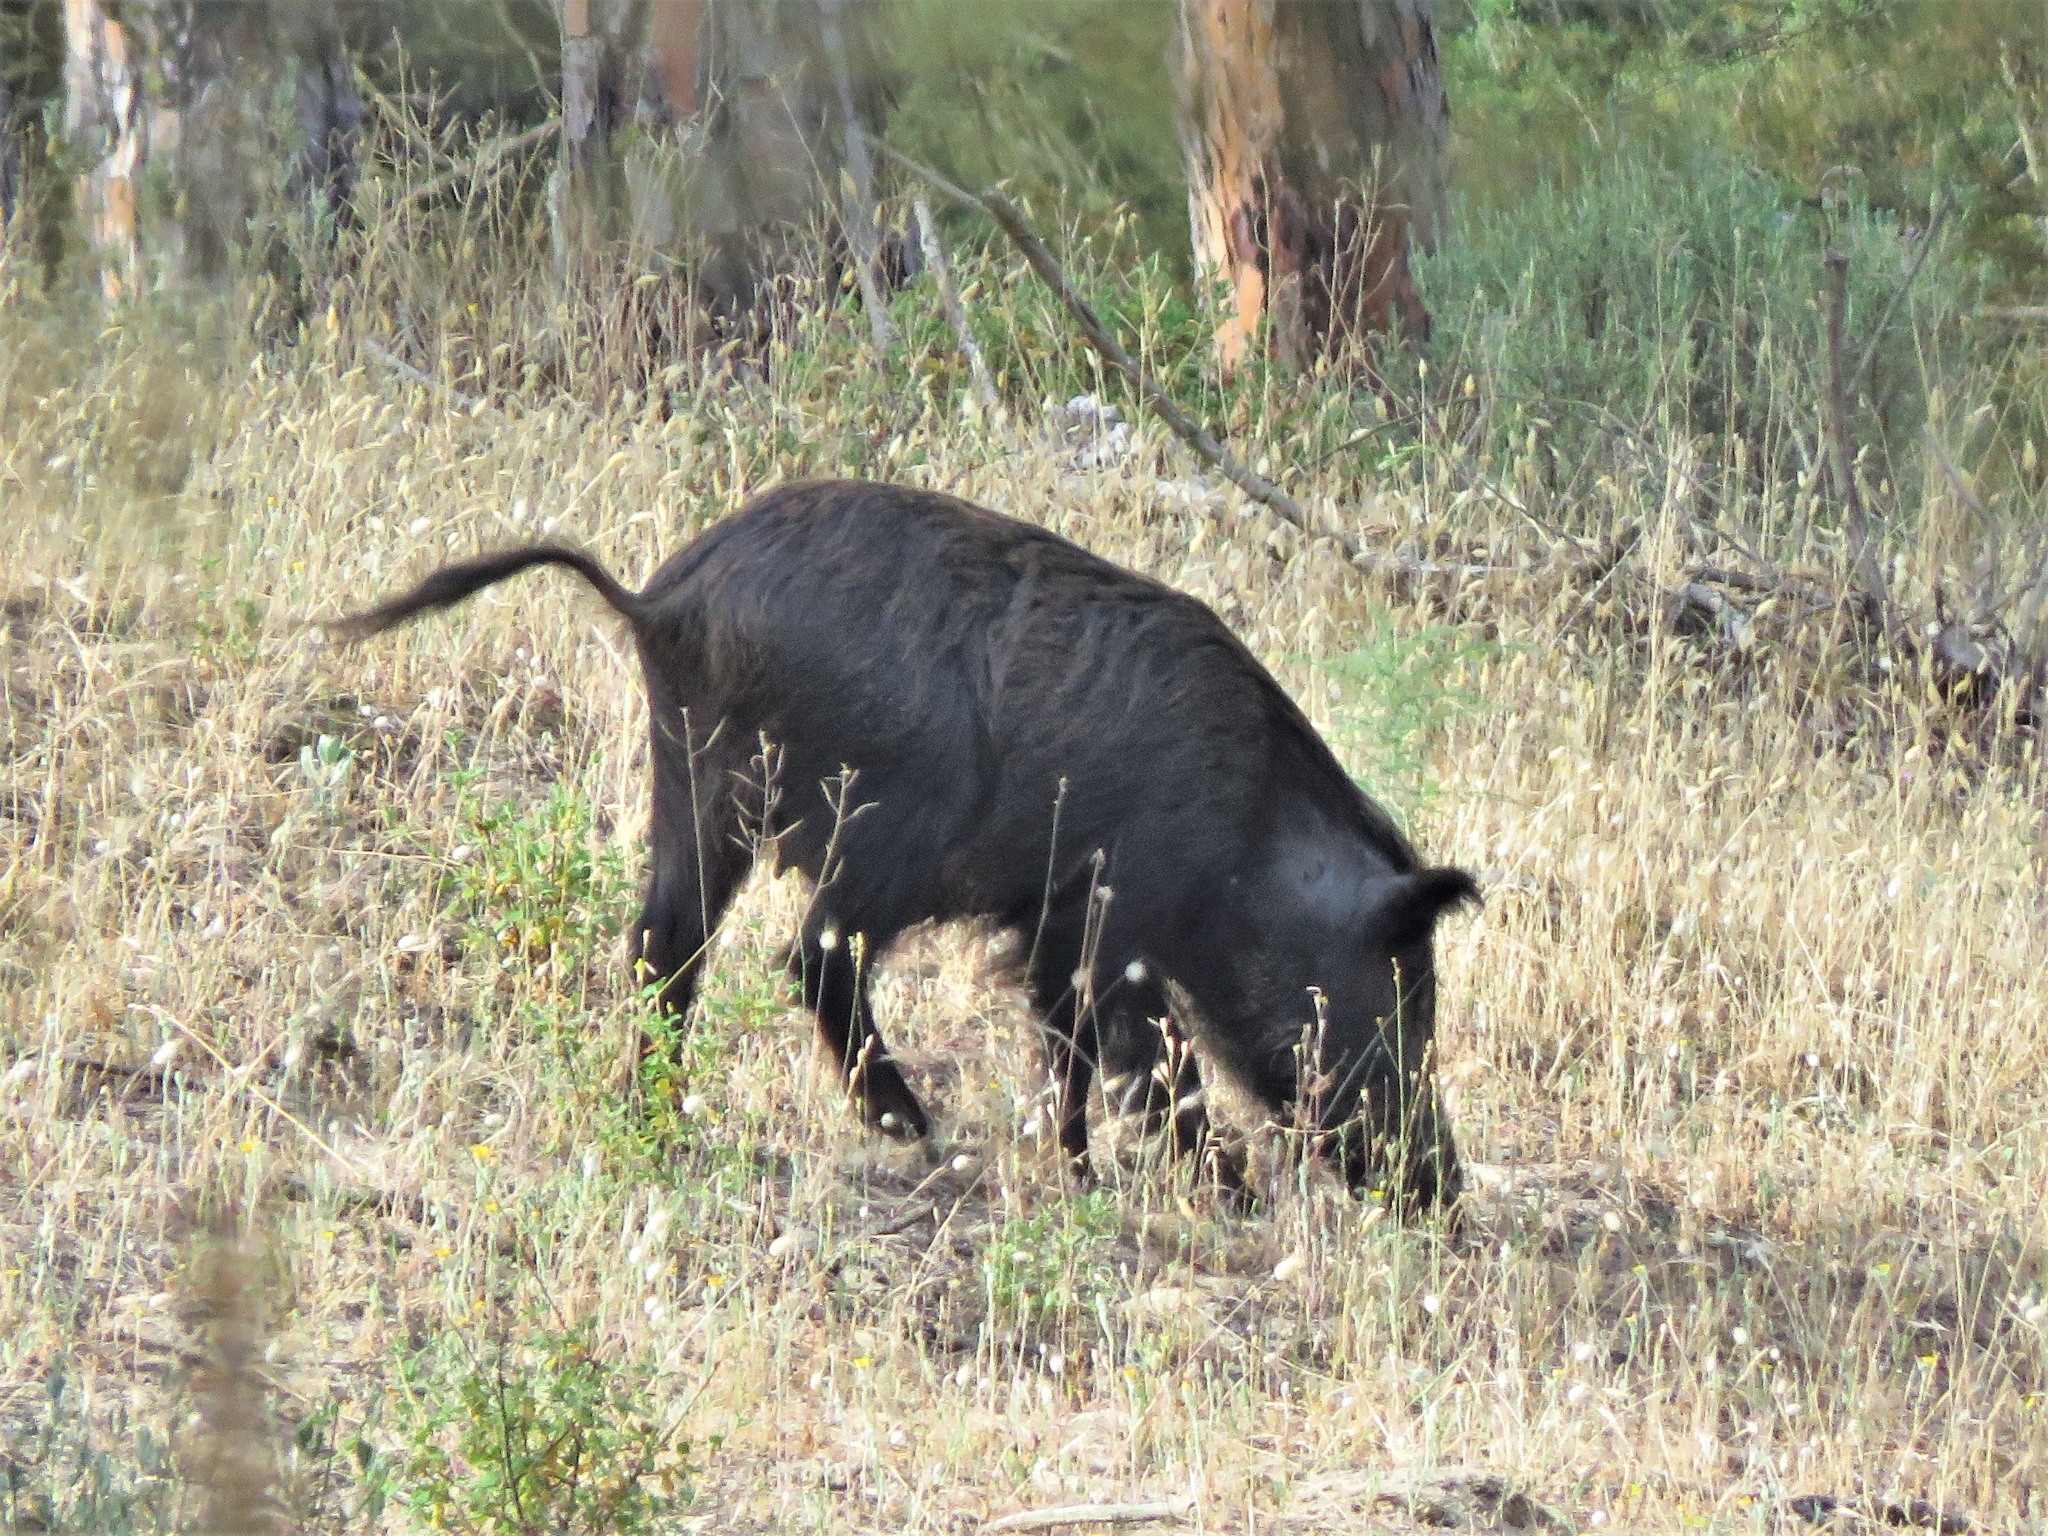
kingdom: Animalia
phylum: Chordata
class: Mammalia
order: Artiodactyla
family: Suidae
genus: Sus
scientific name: Sus scrofa
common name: Wild boar
